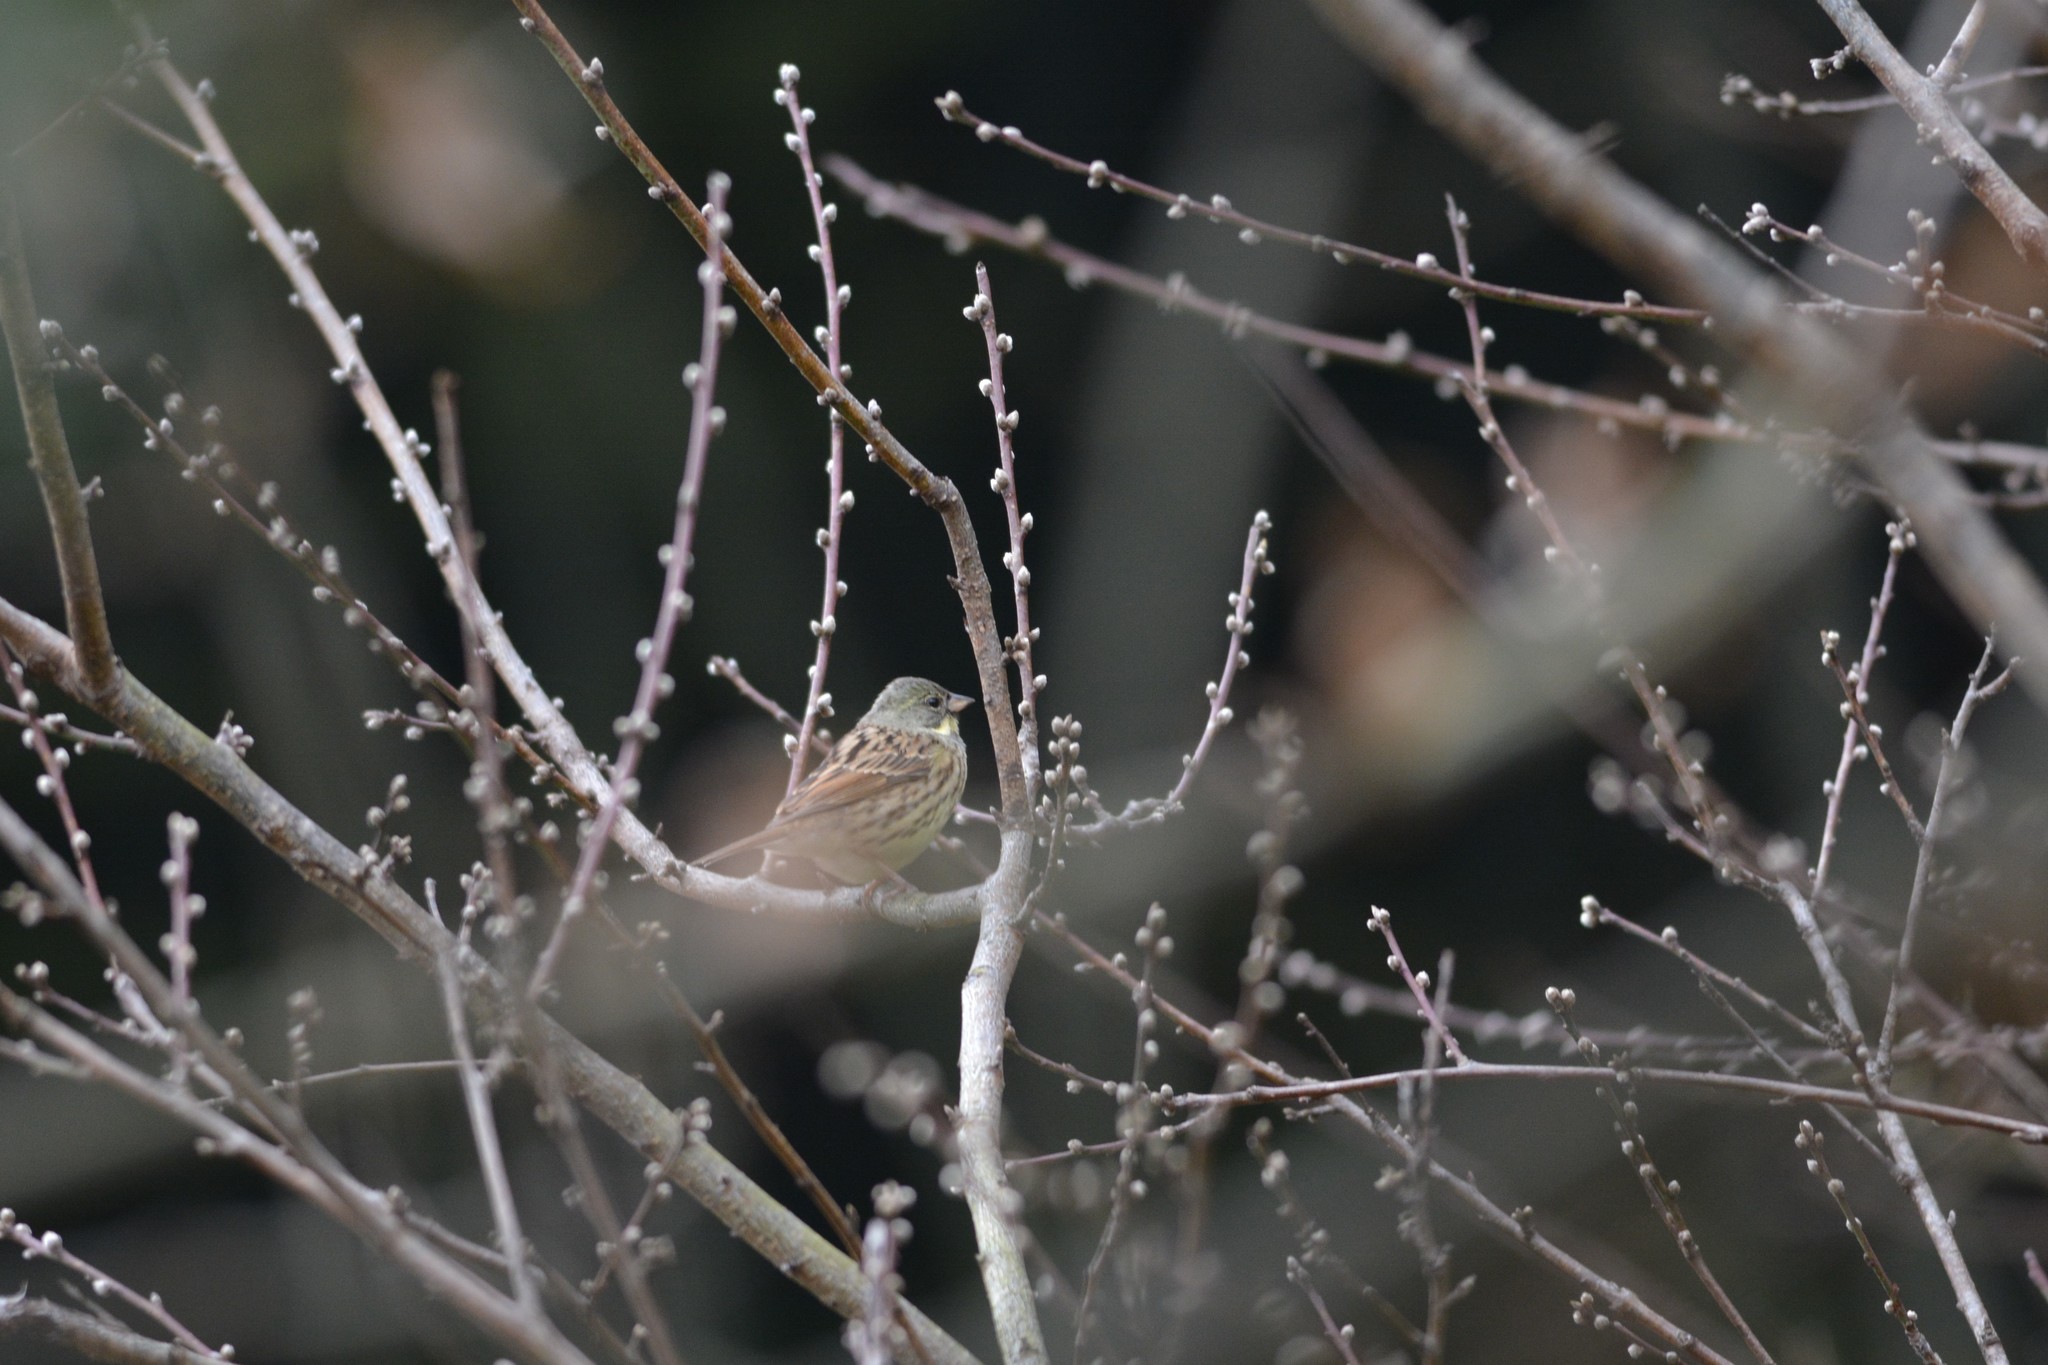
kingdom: Animalia
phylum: Chordata
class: Aves
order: Passeriformes
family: Emberizidae
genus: Emberiza
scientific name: Emberiza personata
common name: Masked bunting
